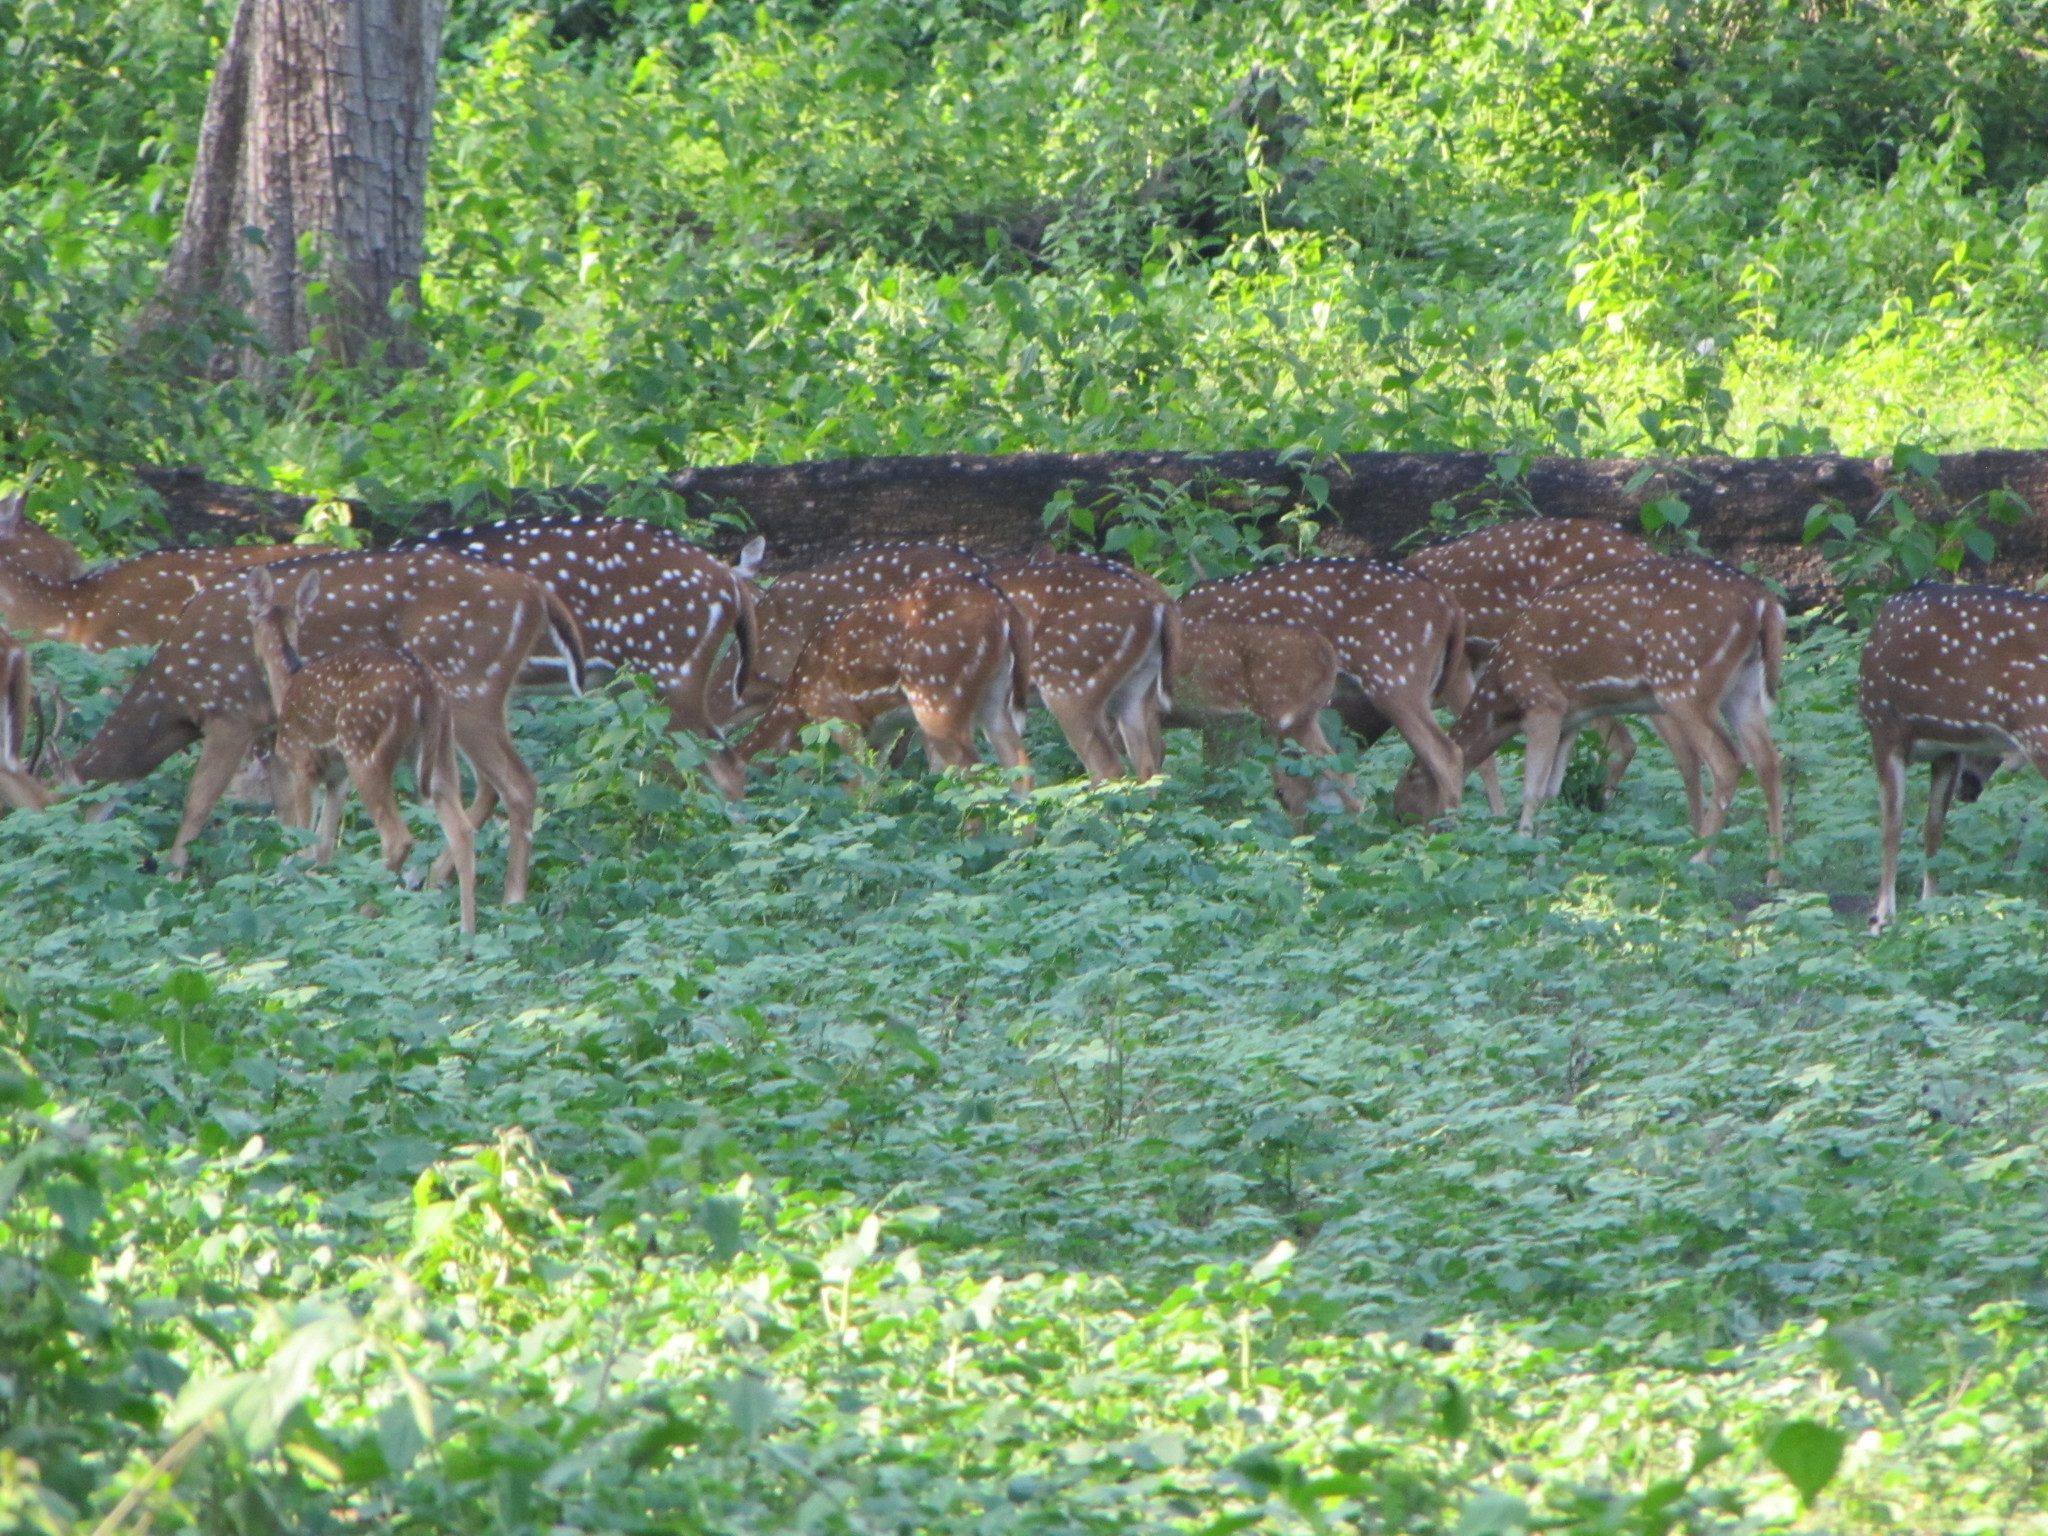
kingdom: Animalia
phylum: Chordata
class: Mammalia
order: Artiodactyla
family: Cervidae
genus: Axis
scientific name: Axis axis
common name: Chital
